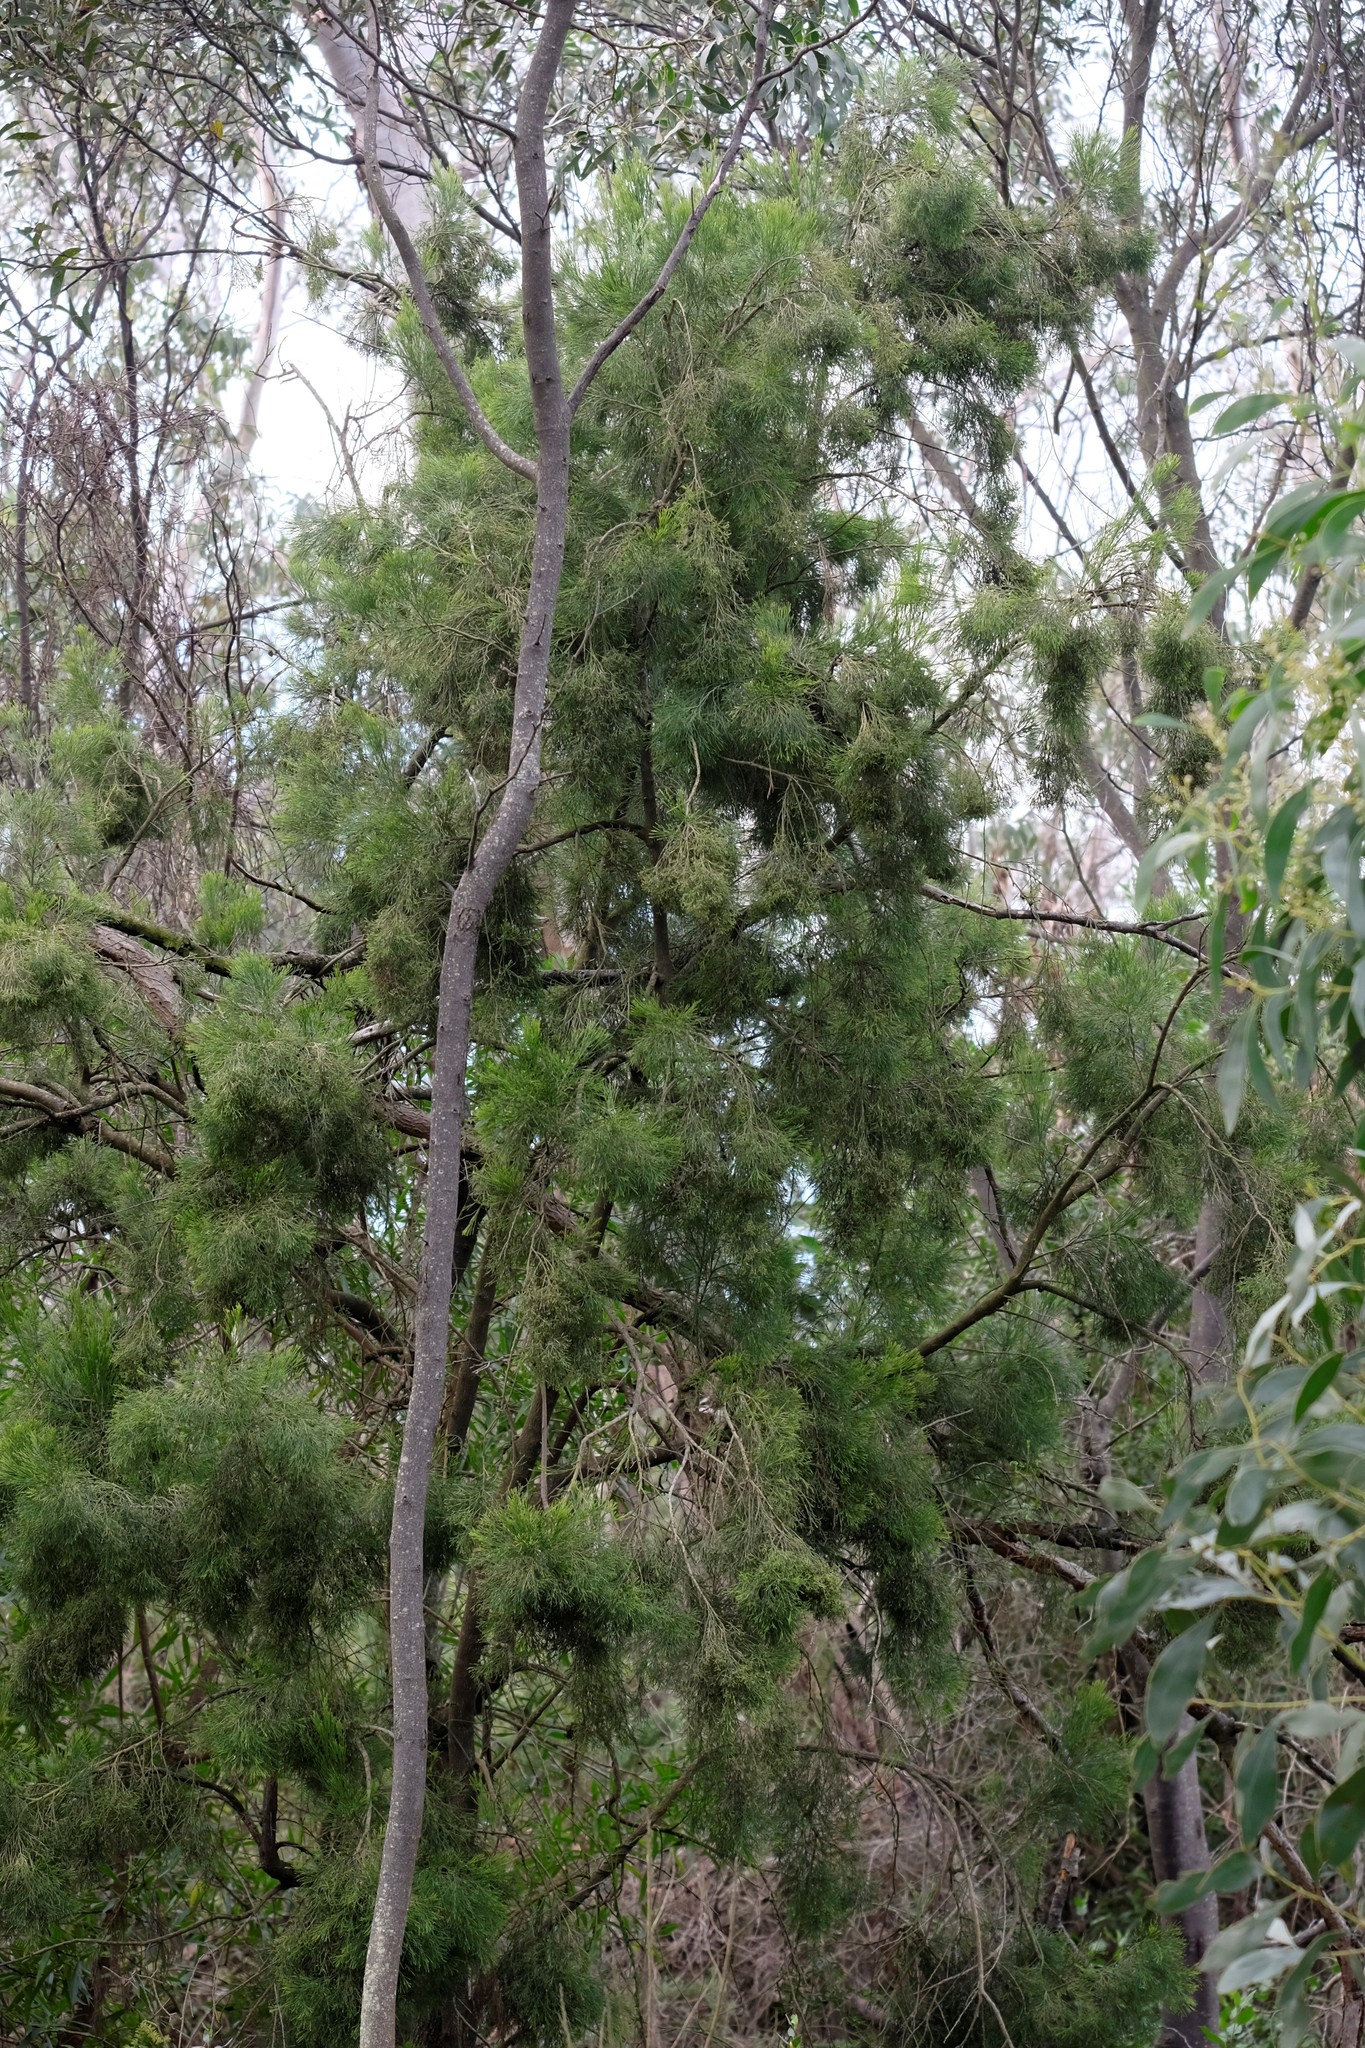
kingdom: Plantae
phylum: Tracheophyta
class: Magnoliopsida
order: Santalales
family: Santalaceae
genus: Exocarpos
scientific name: Exocarpos cupressiformis
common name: Cherry ballart
